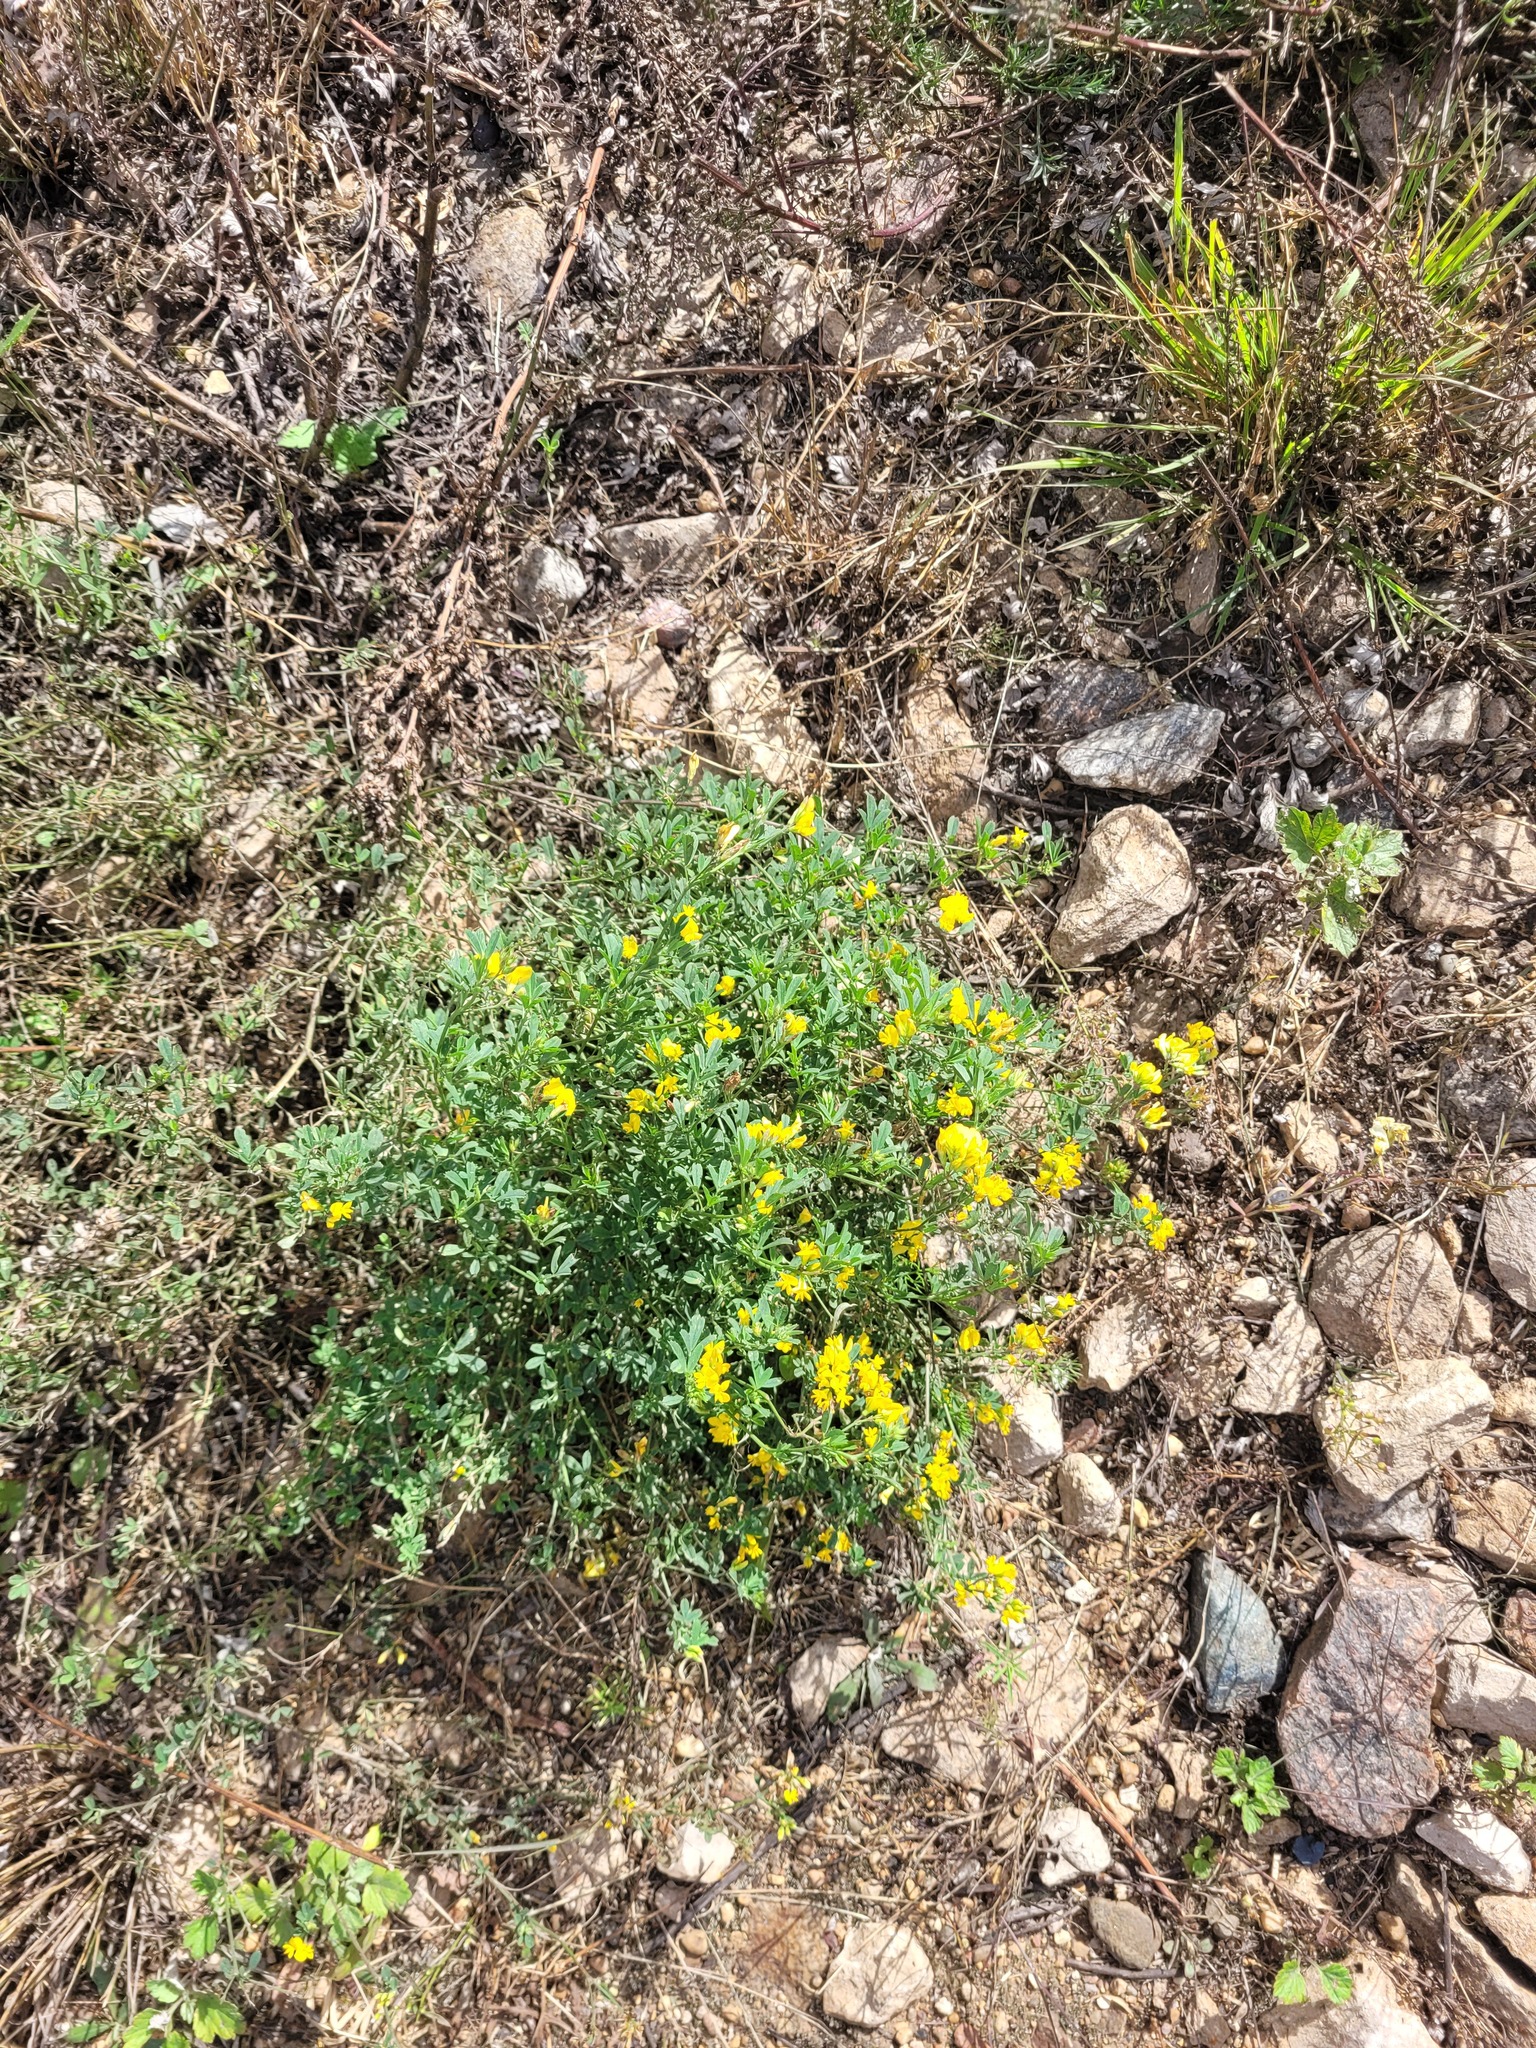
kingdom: Plantae
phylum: Tracheophyta
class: Magnoliopsida
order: Fabales
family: Fabaceae
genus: Medicago
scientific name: Medicago falcata
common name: Sickle medick
